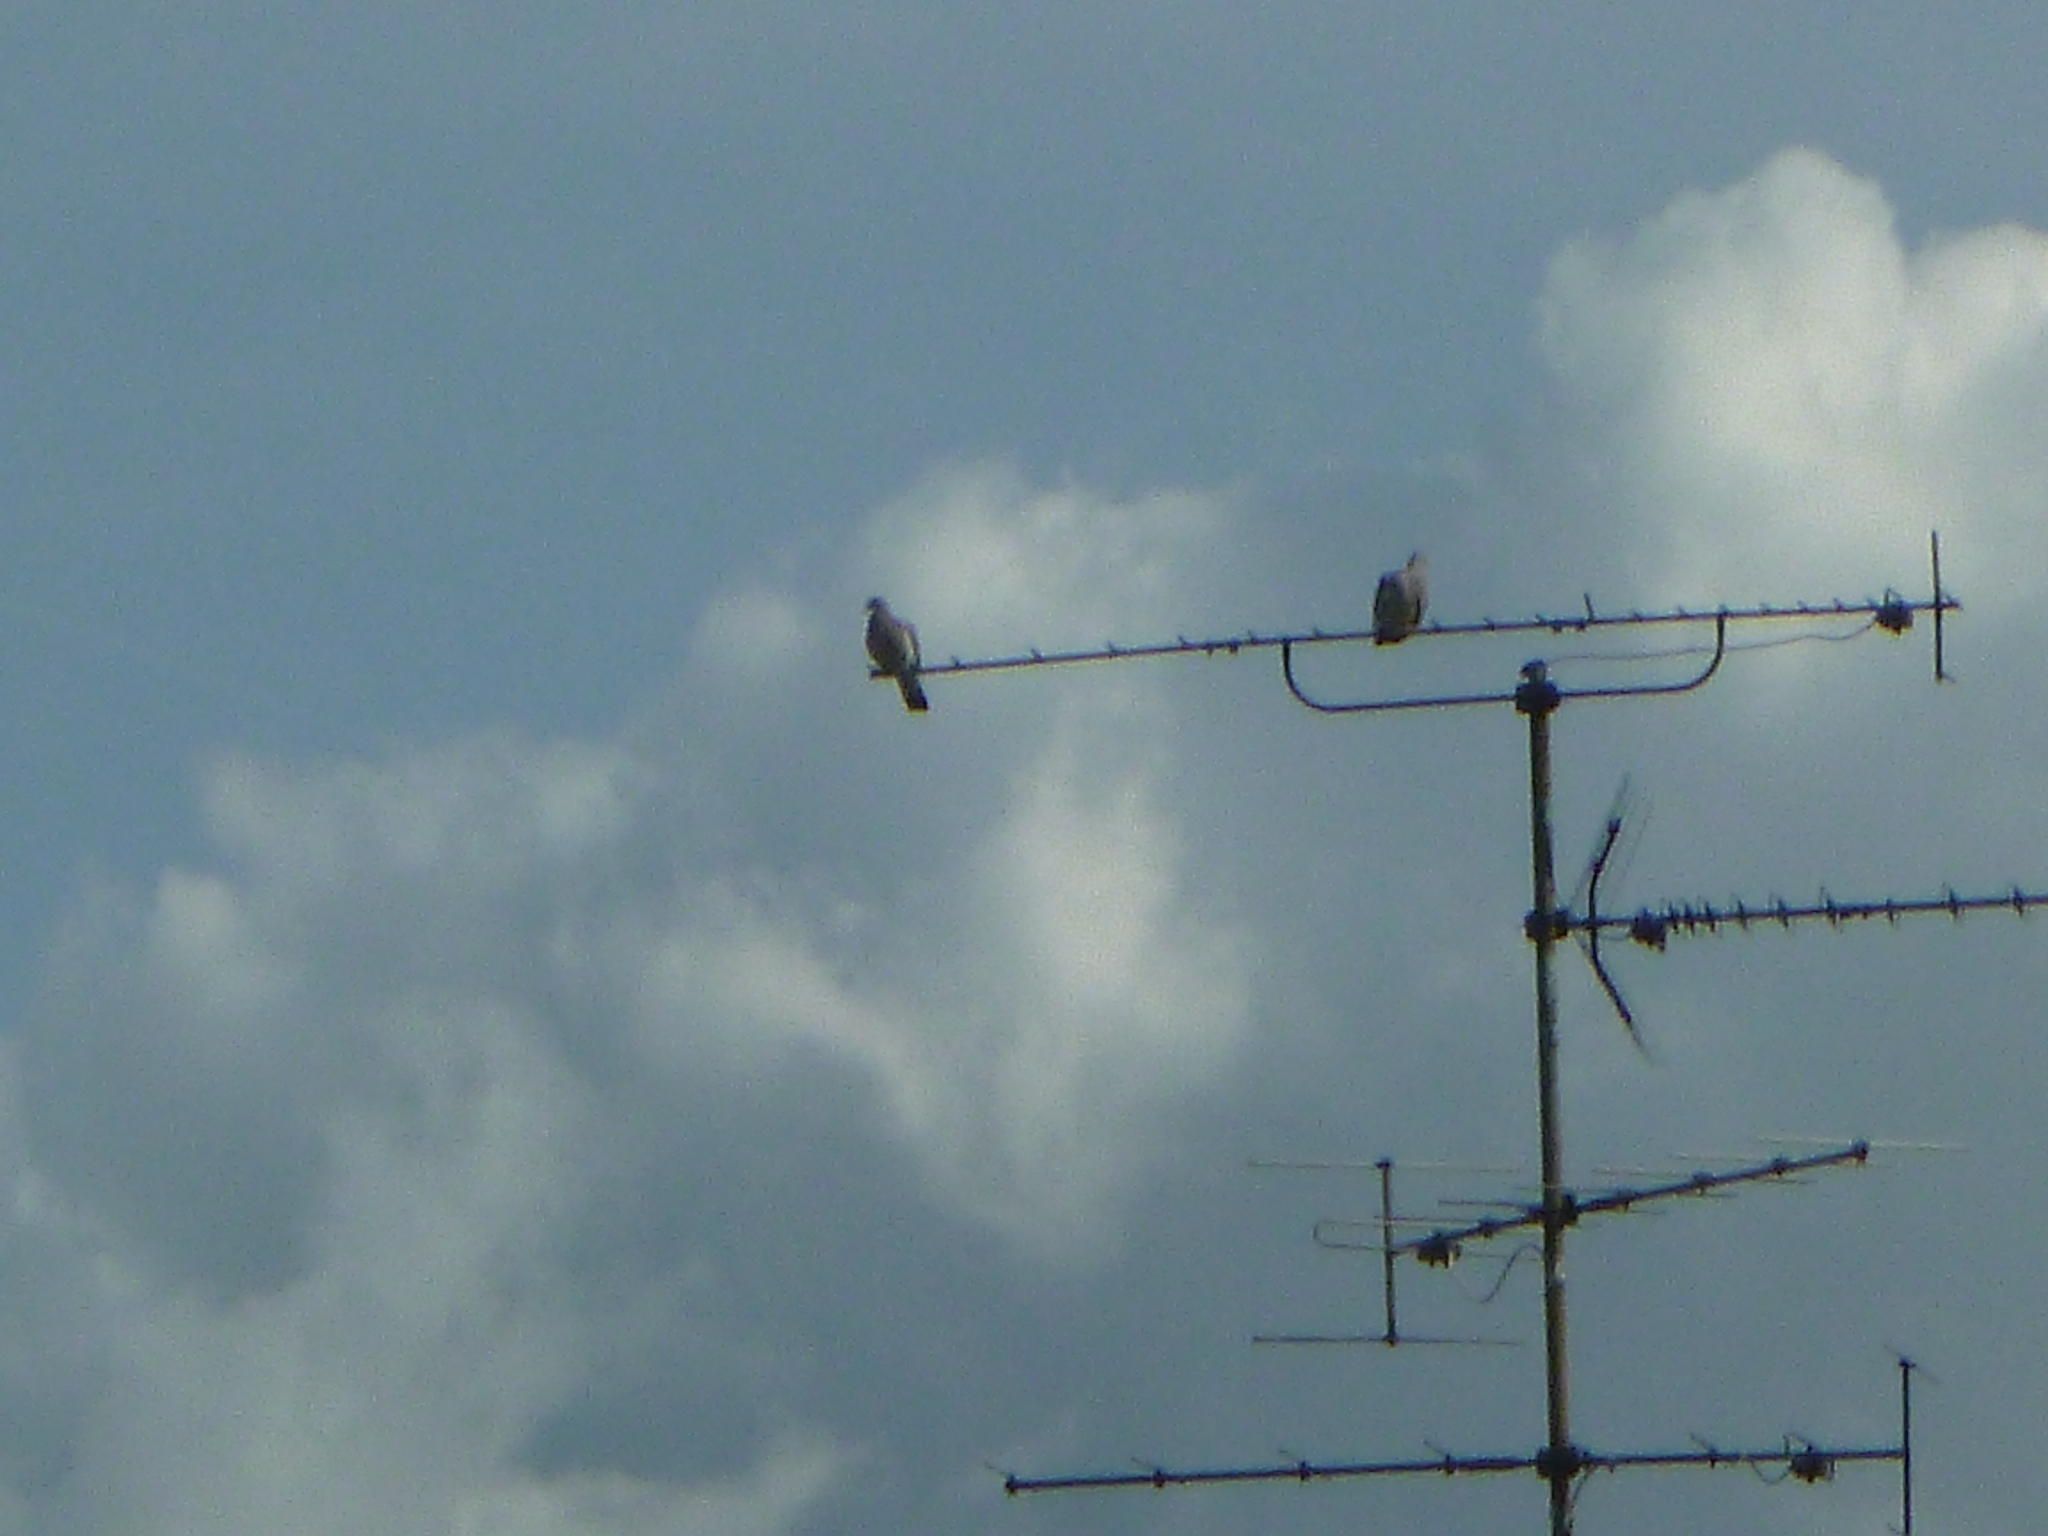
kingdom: Animalia
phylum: Chordata
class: Aves
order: Columbiformes
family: Columbidae
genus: Columba
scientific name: Columba palumbus
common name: Common wood pigeon
